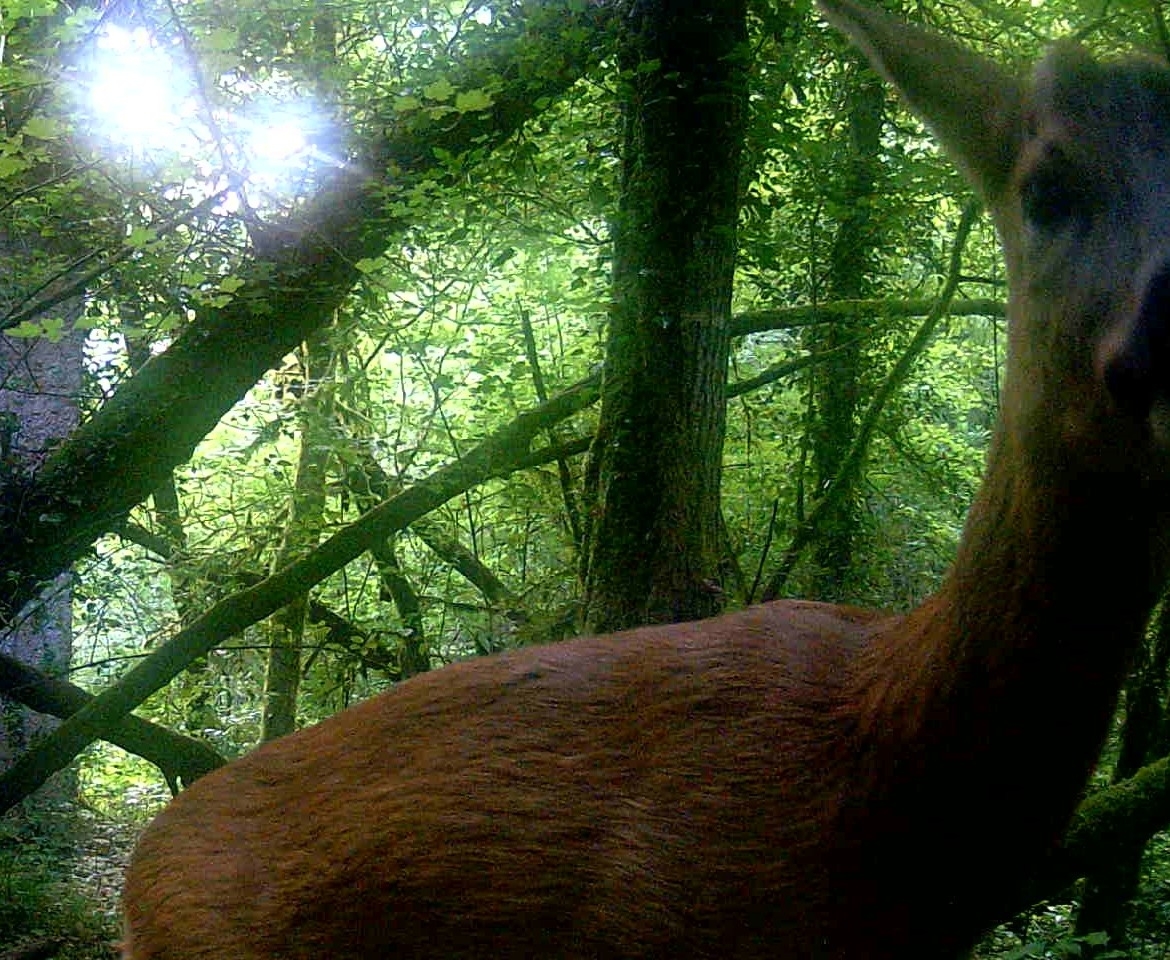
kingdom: Animalia
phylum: Chordata
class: Mammalia
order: Artiodactyla
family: Cervidae
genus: Capreolus
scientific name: Capreolus capreolus
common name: Western roe deer
